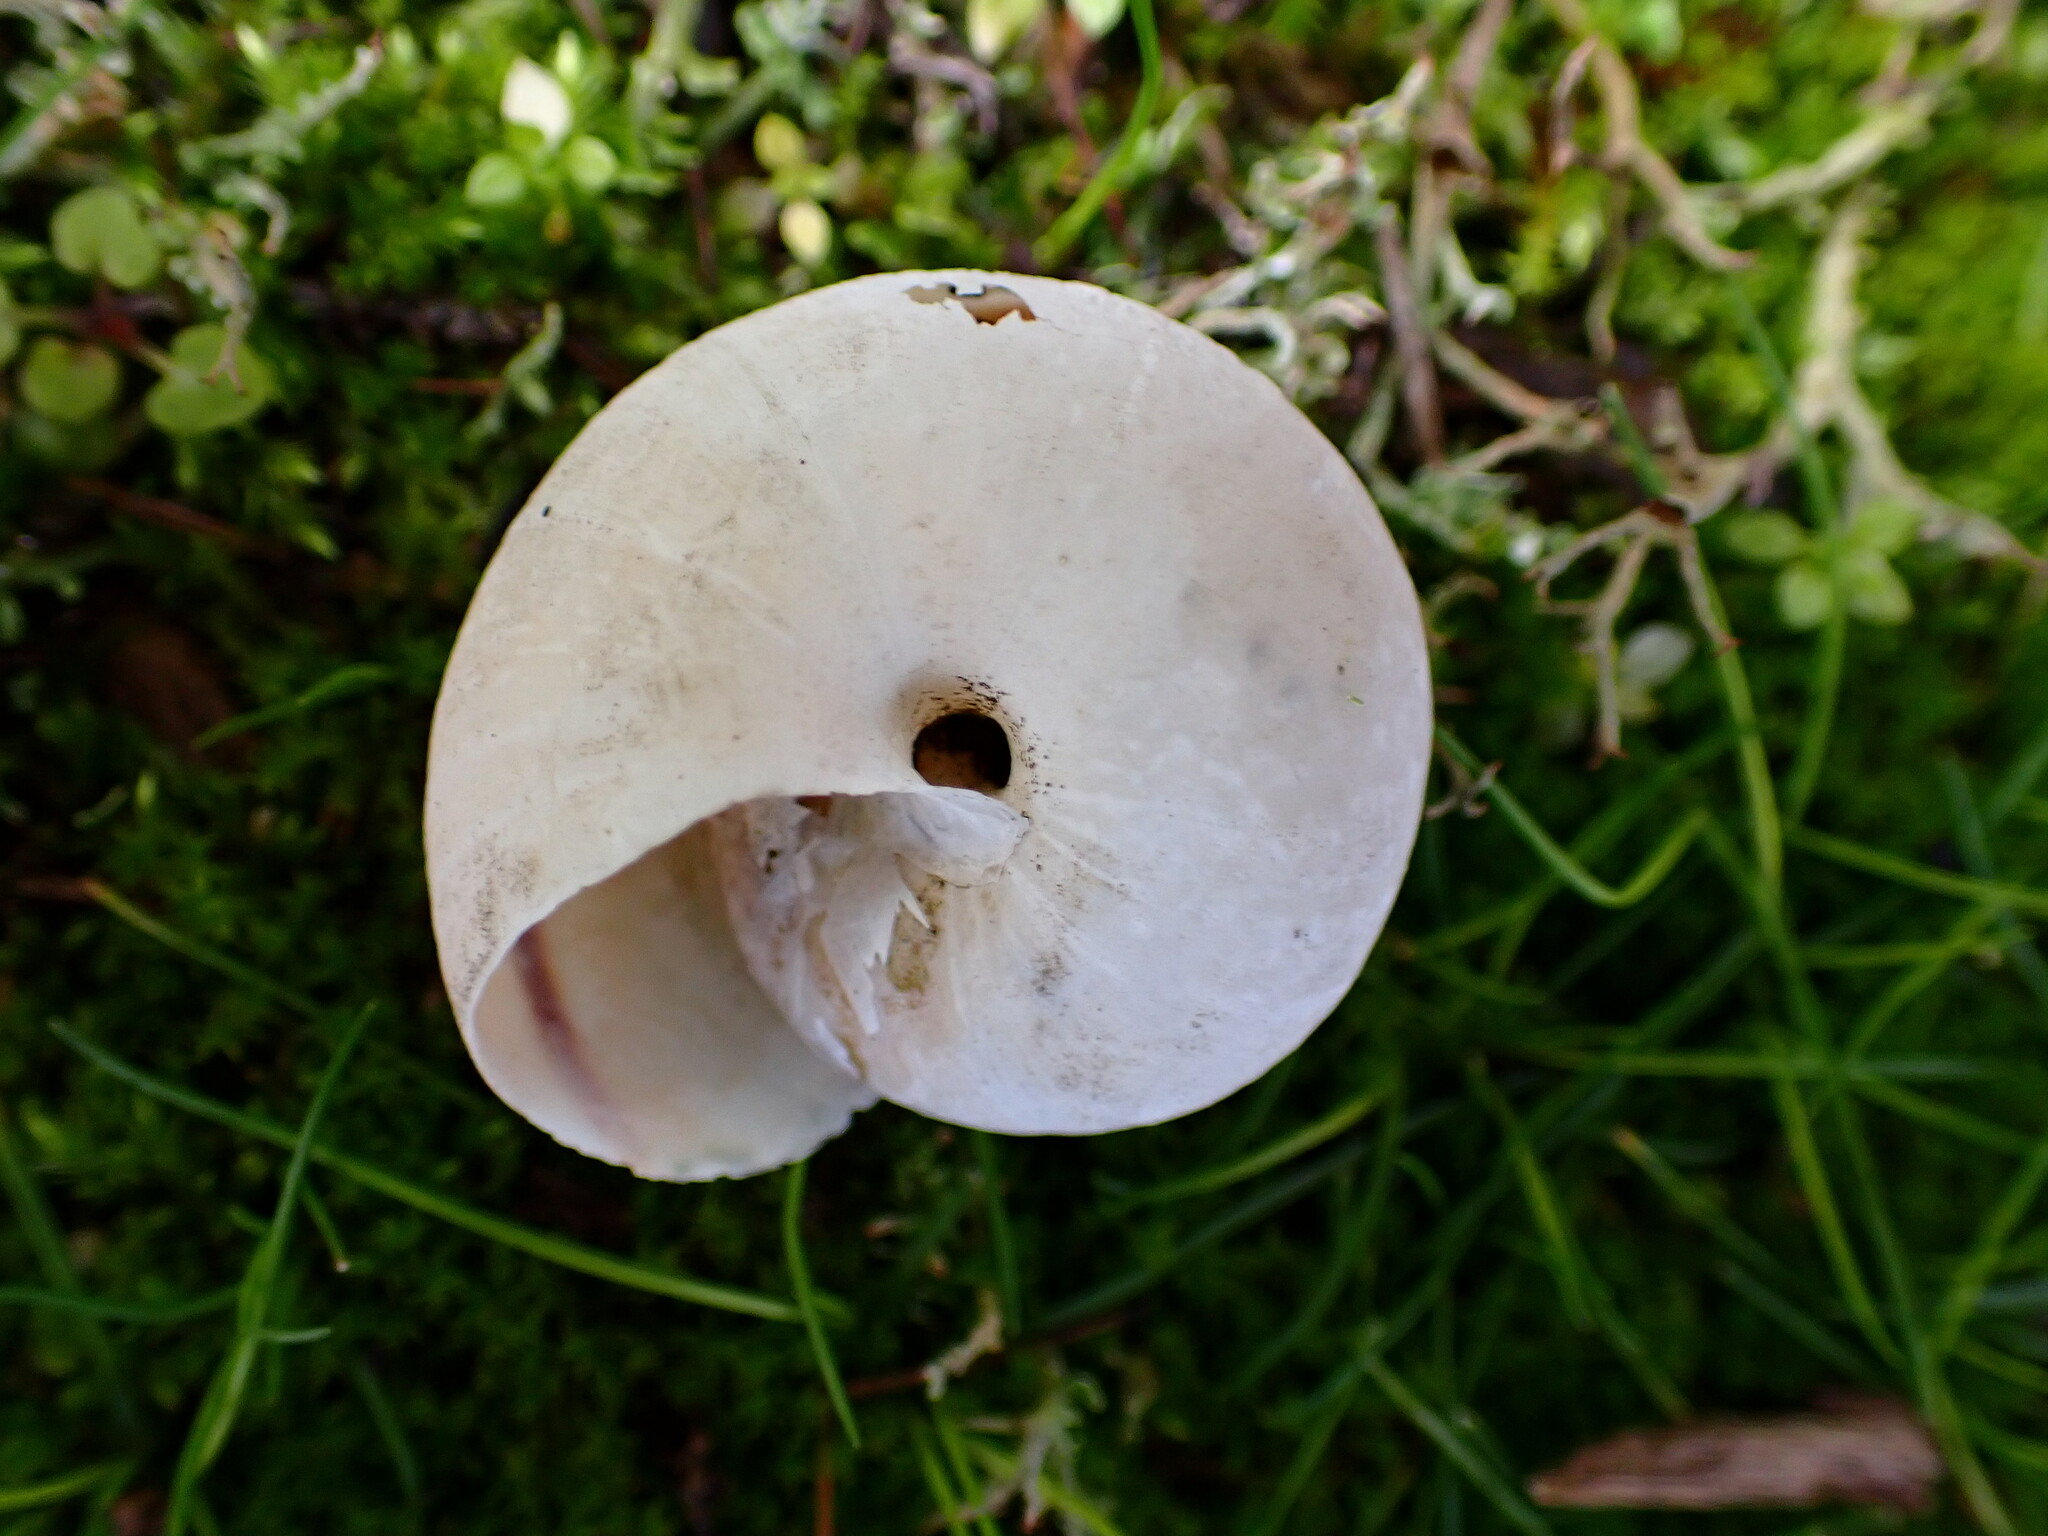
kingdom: Animalia
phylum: Mollusca
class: Gastropoda
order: Stylommatophora
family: Xanthonychidae
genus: Helminthoglypta
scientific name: Helminthoglypta arrosa
